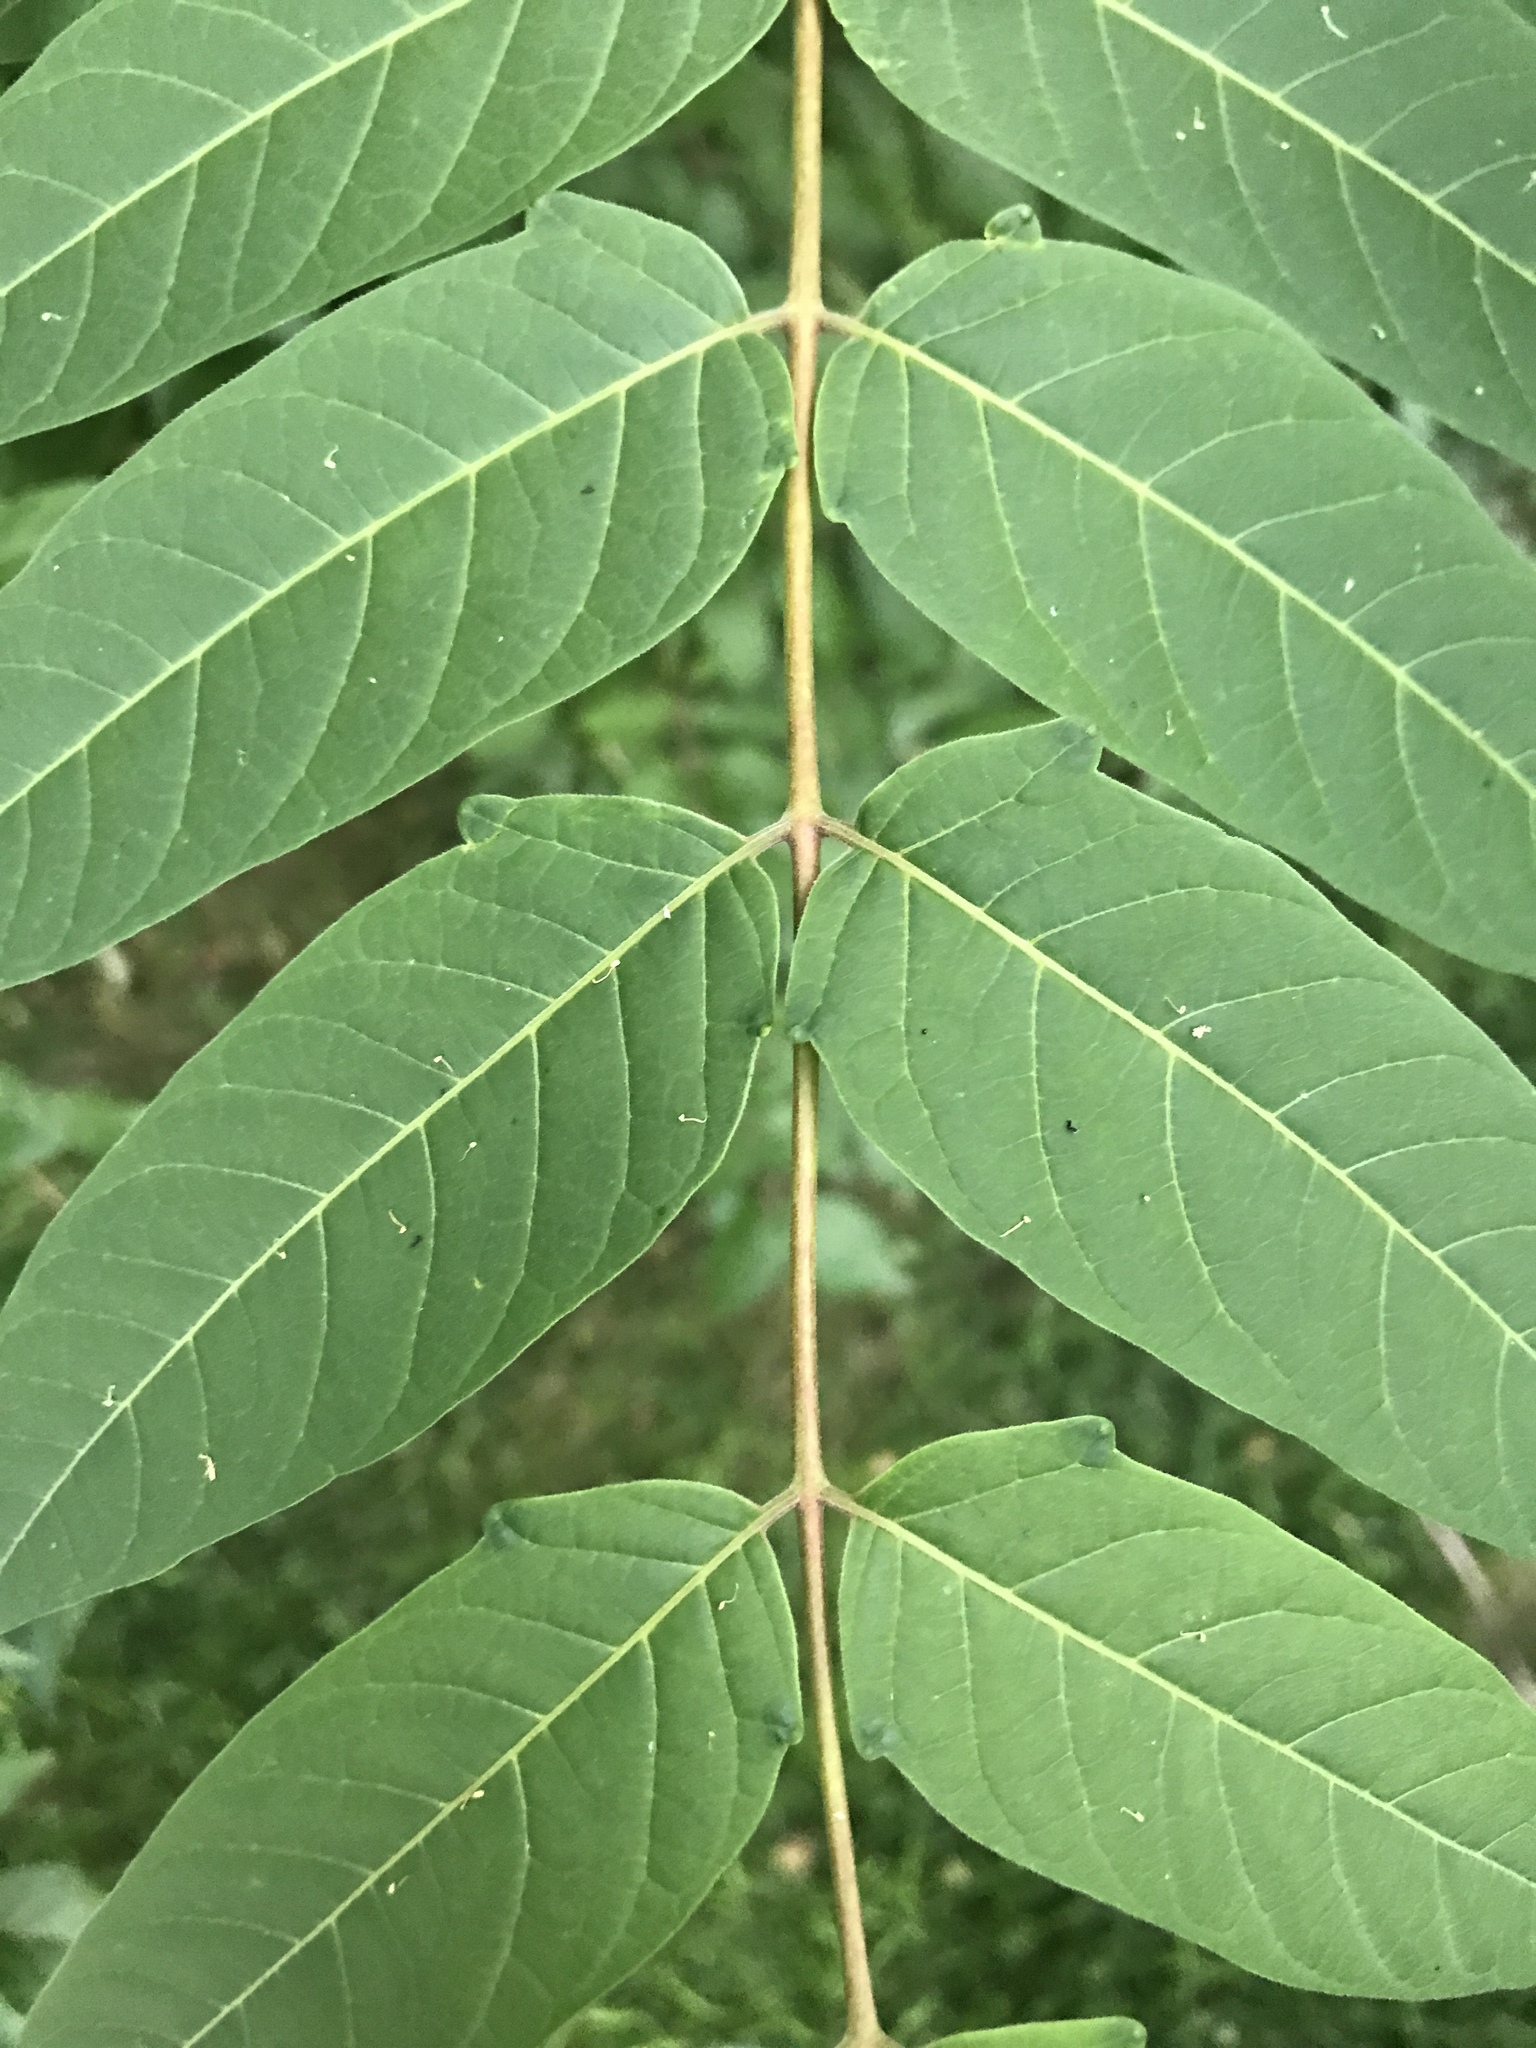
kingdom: Plantae
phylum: Tracheophyta
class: Magnoliopsida
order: Sapindales
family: Simaroubaceae
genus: Ailanthus
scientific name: Ailanthus altissima
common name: Tree-of-heaven
